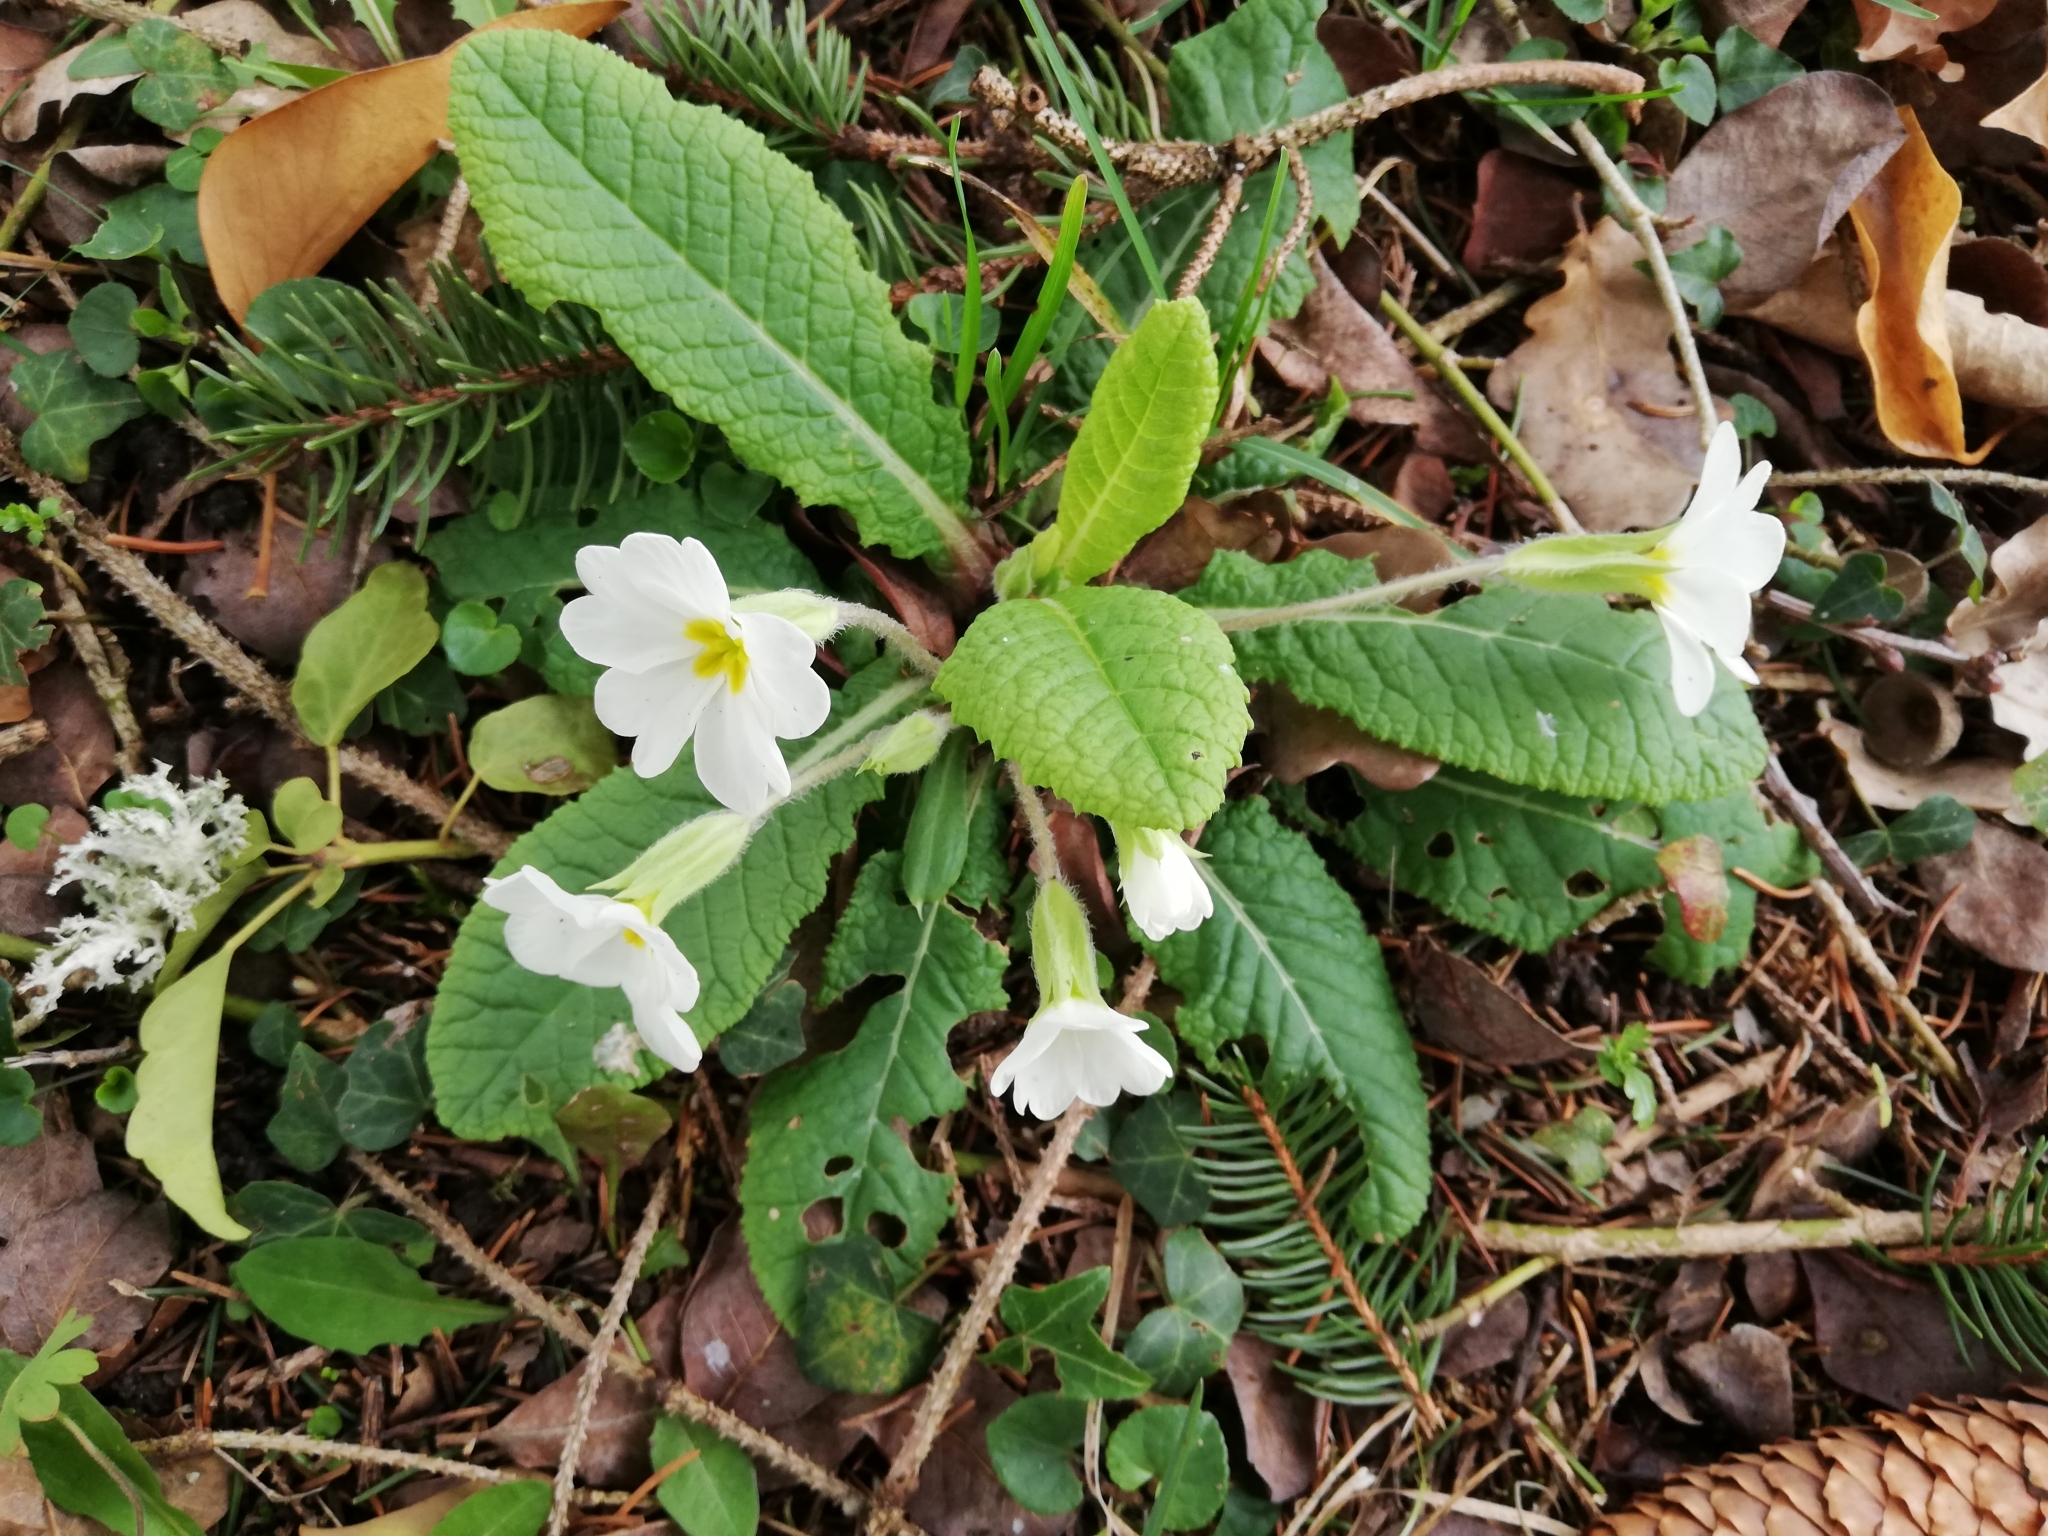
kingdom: Plantae
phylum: Tracheophyta
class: Magnoliopsida
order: Ericales
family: Primulaceae
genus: Primula
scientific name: Primula vulgaris
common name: Primrose
